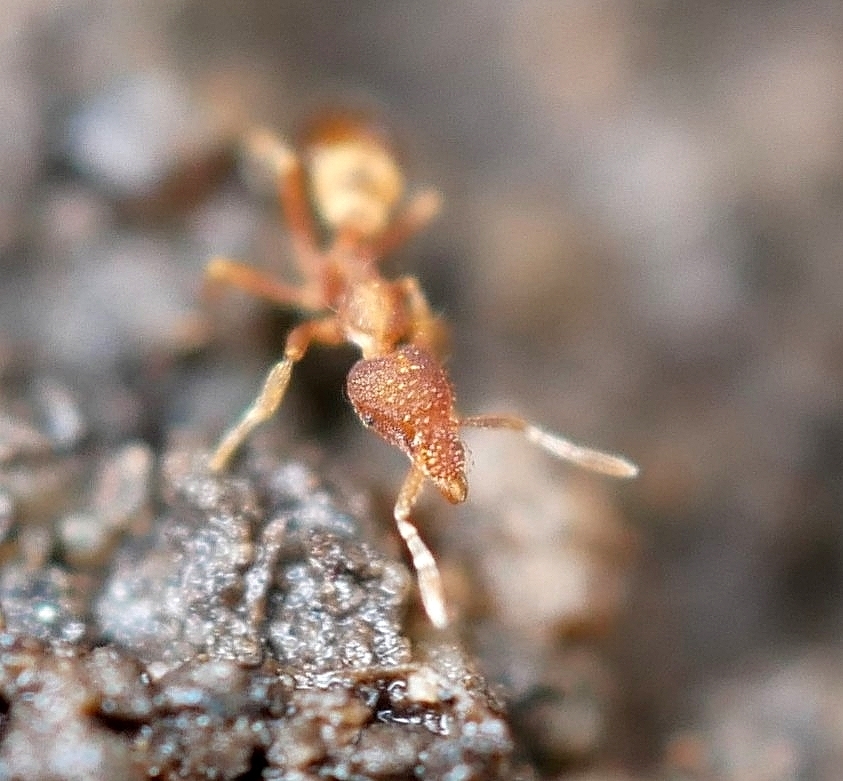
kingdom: Animalia
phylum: Arthropoda
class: Insecta
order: Hymenoptera
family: Formicidae
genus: Strumigenys
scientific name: Strumigenys ananeotes
